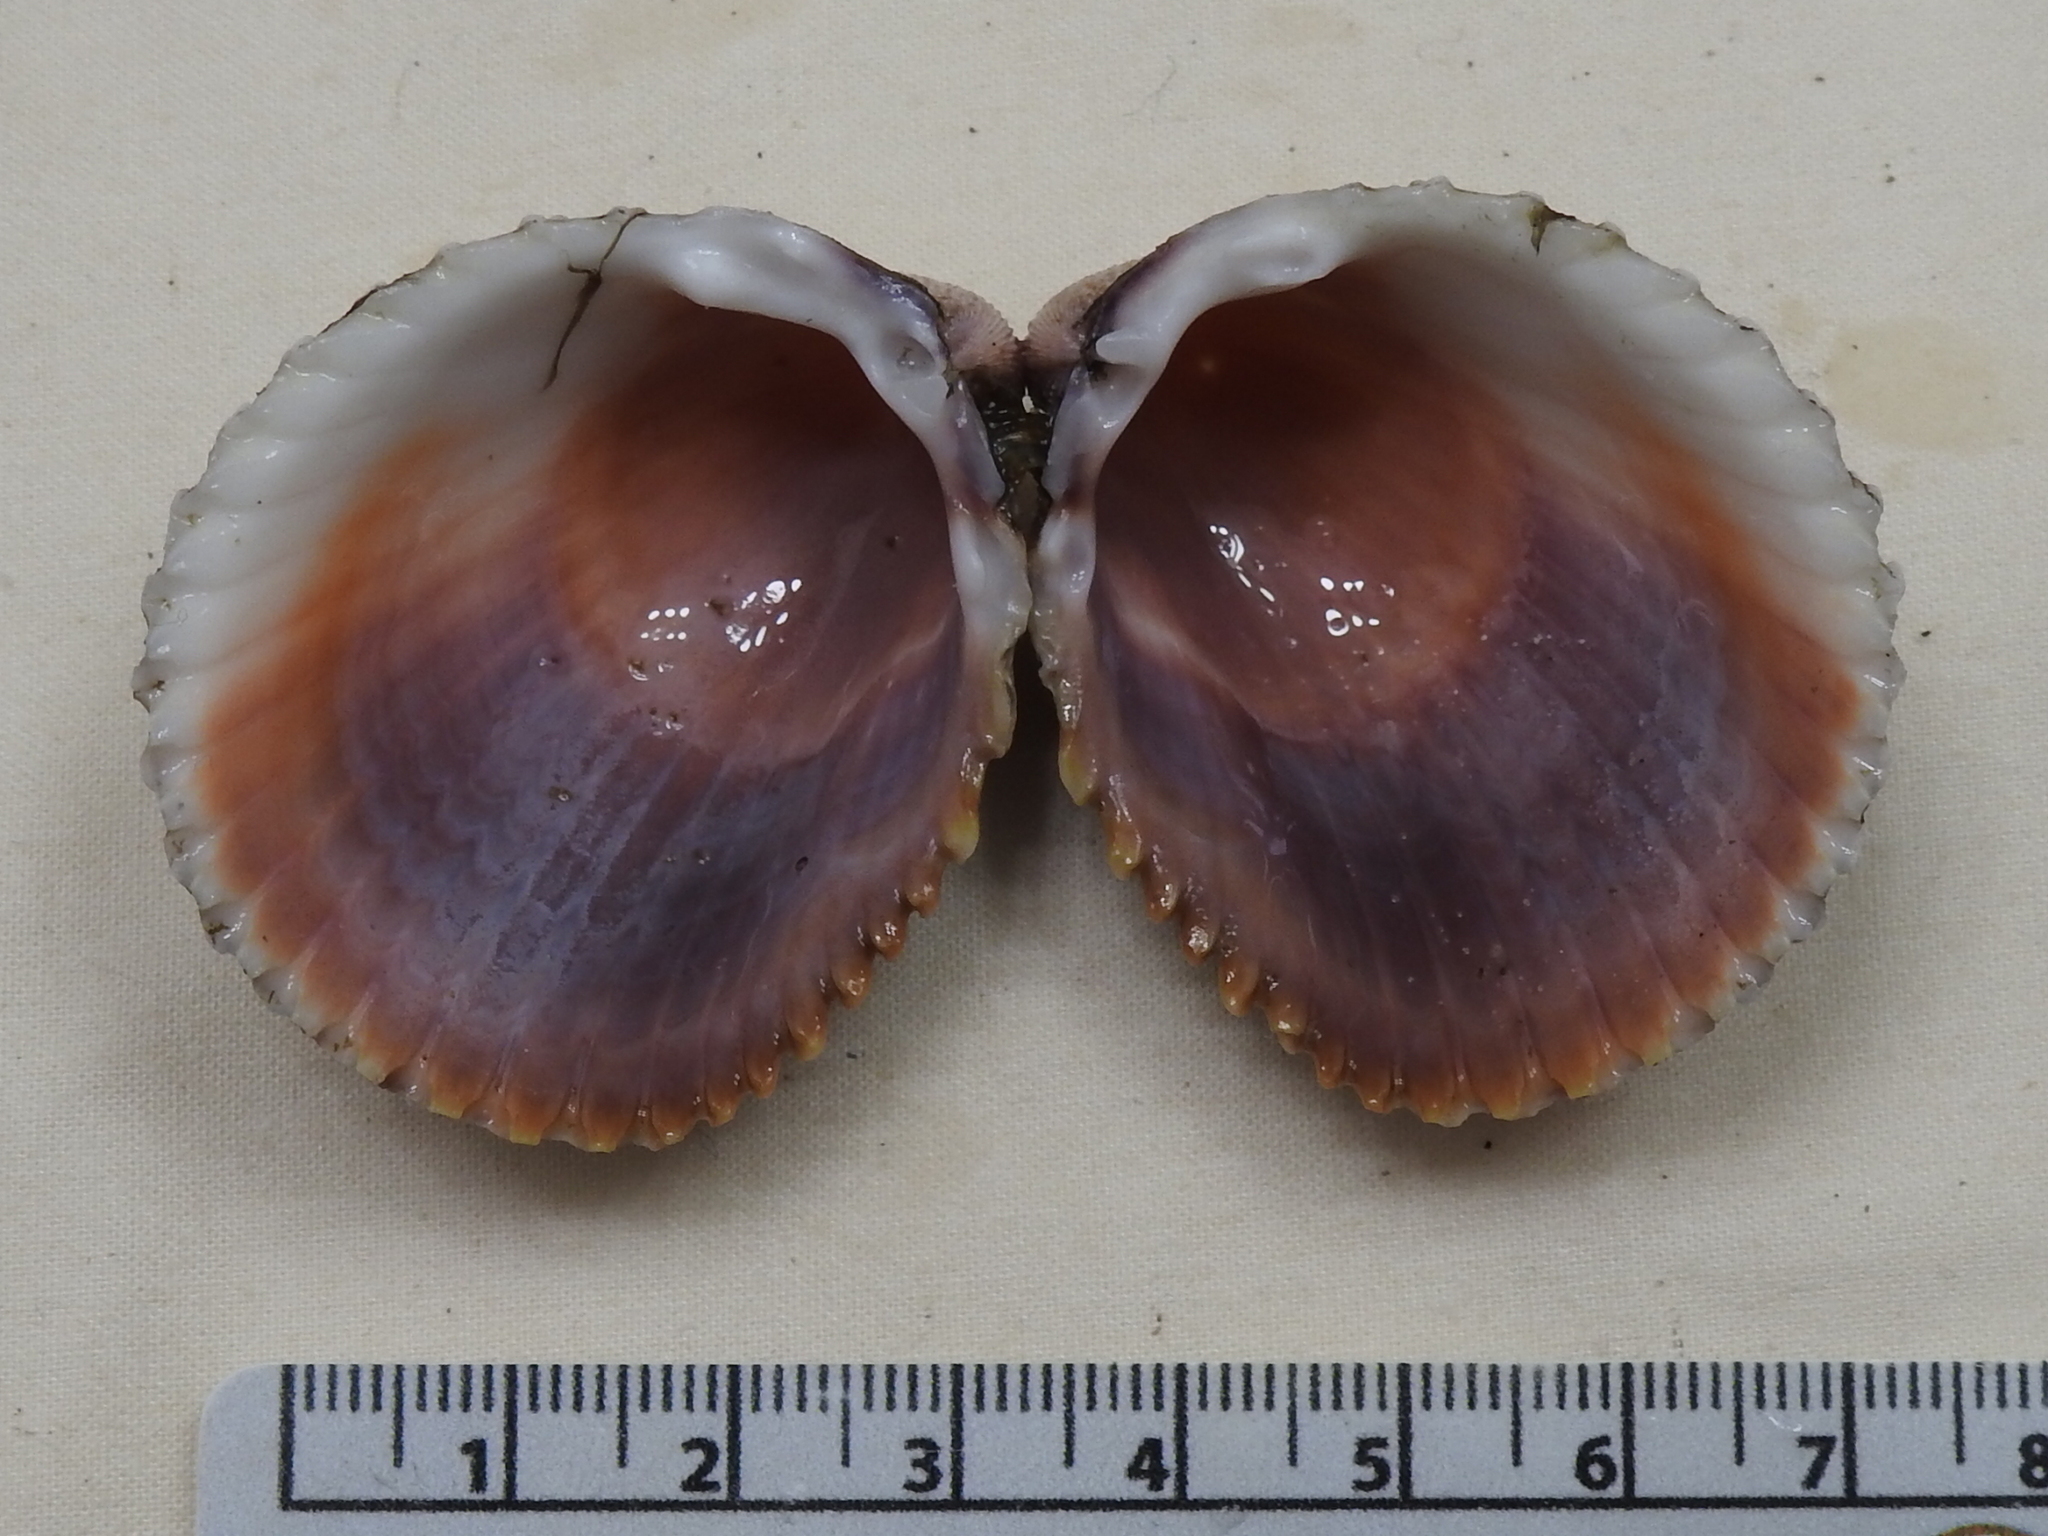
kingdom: Animalia
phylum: Mollusca
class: Bivalvia
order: Cardiida
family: Cardiidae
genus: Trachycardium
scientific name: Trachycardium egmontianum
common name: Florida pricklycockle
